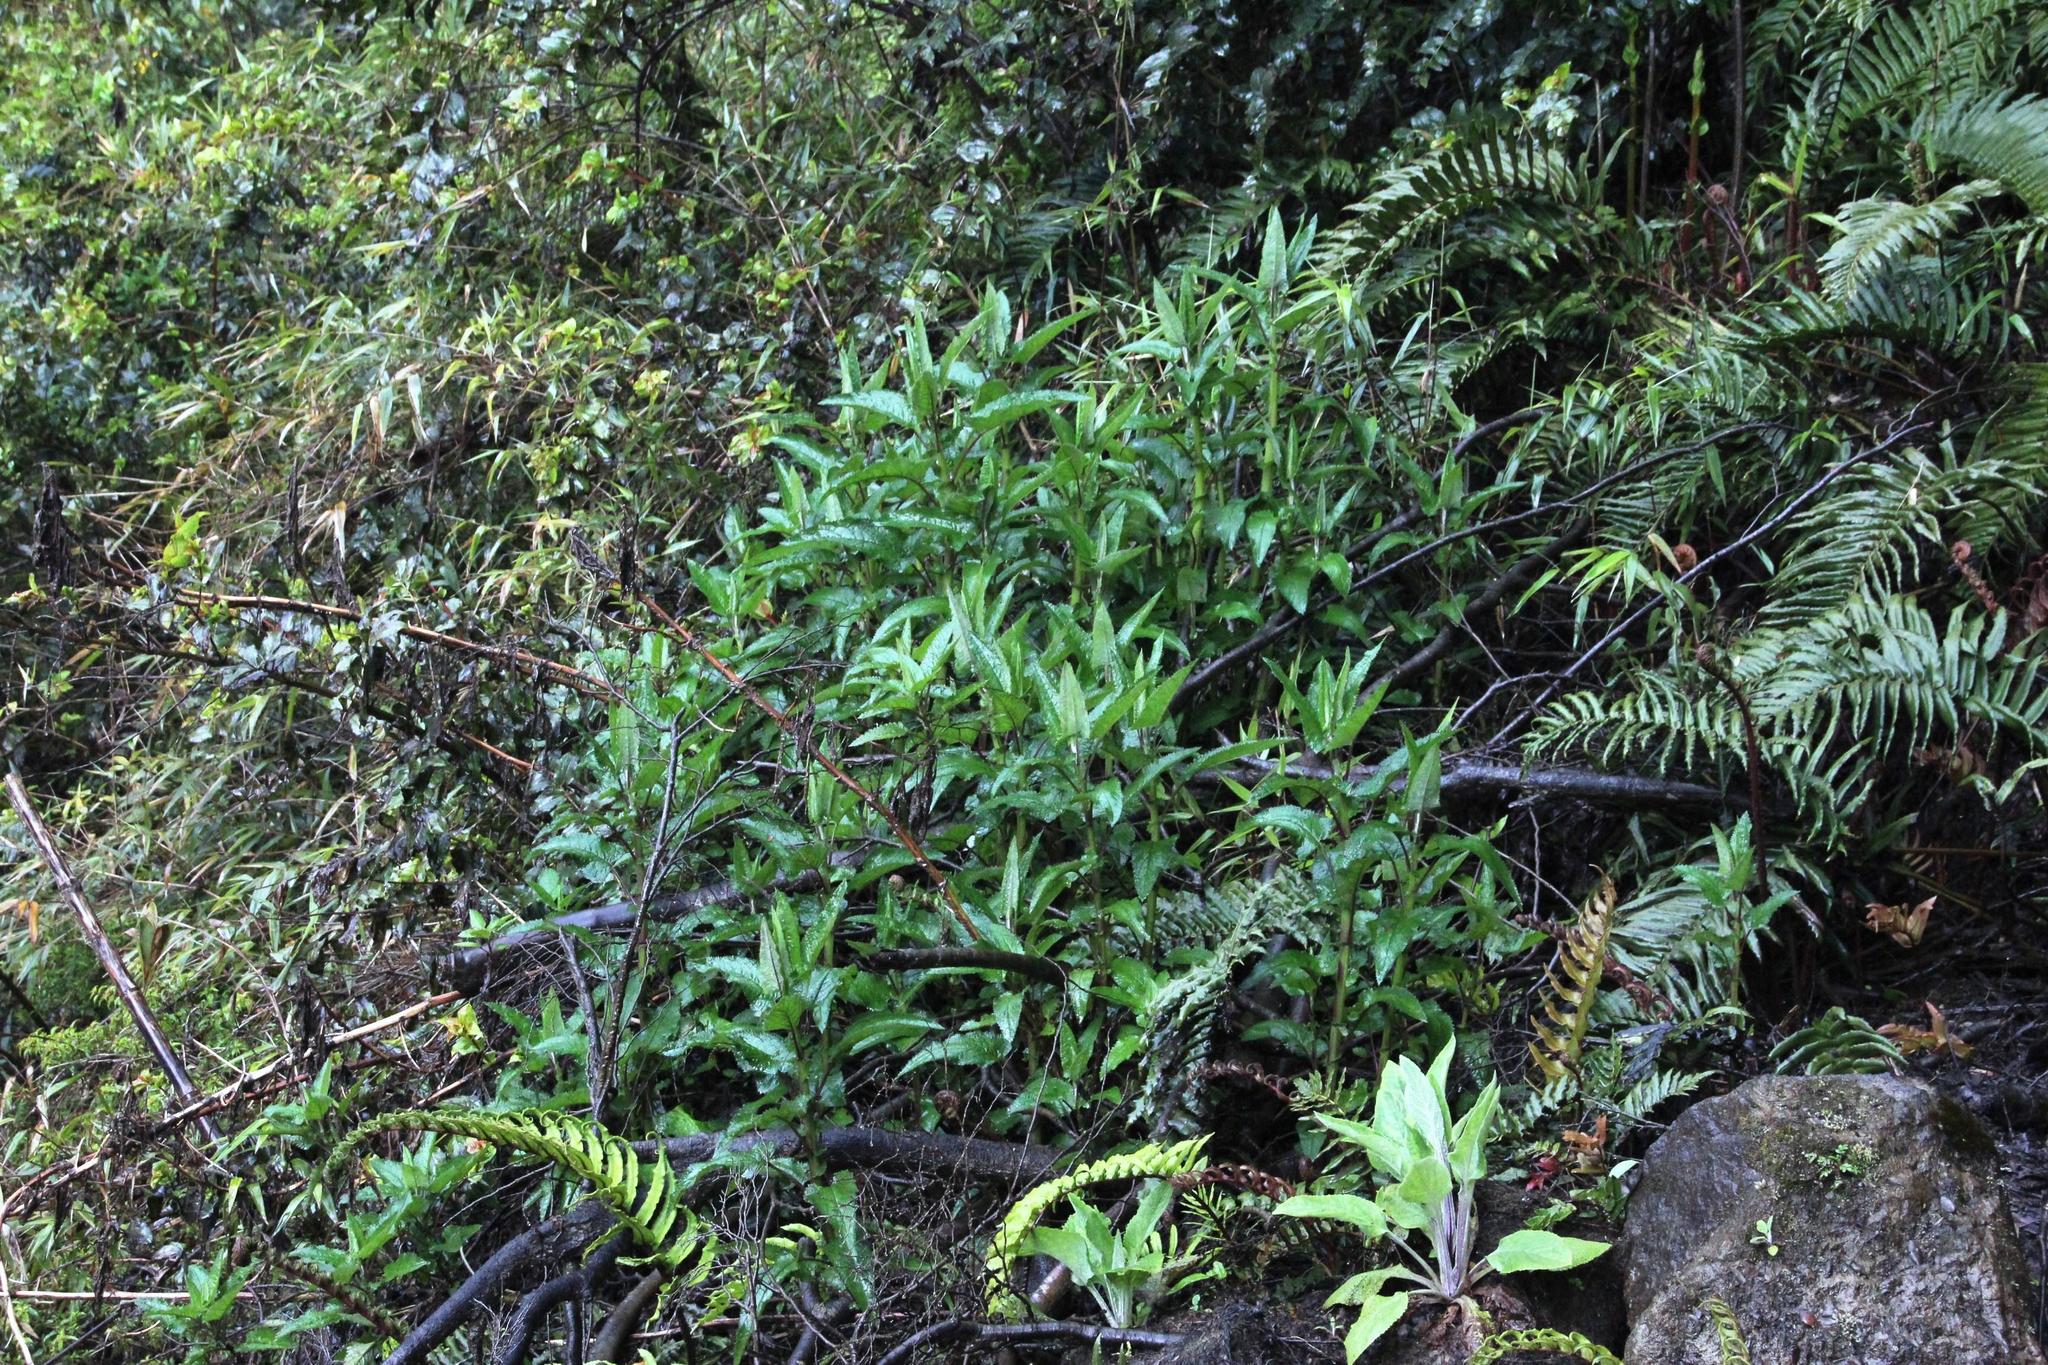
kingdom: Plantae
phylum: Tracheophyta
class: Magnoliopsida
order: Lamiales
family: Plantaginaceae
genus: Digitalis
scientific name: Digitalis purpurea
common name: Foxglove
